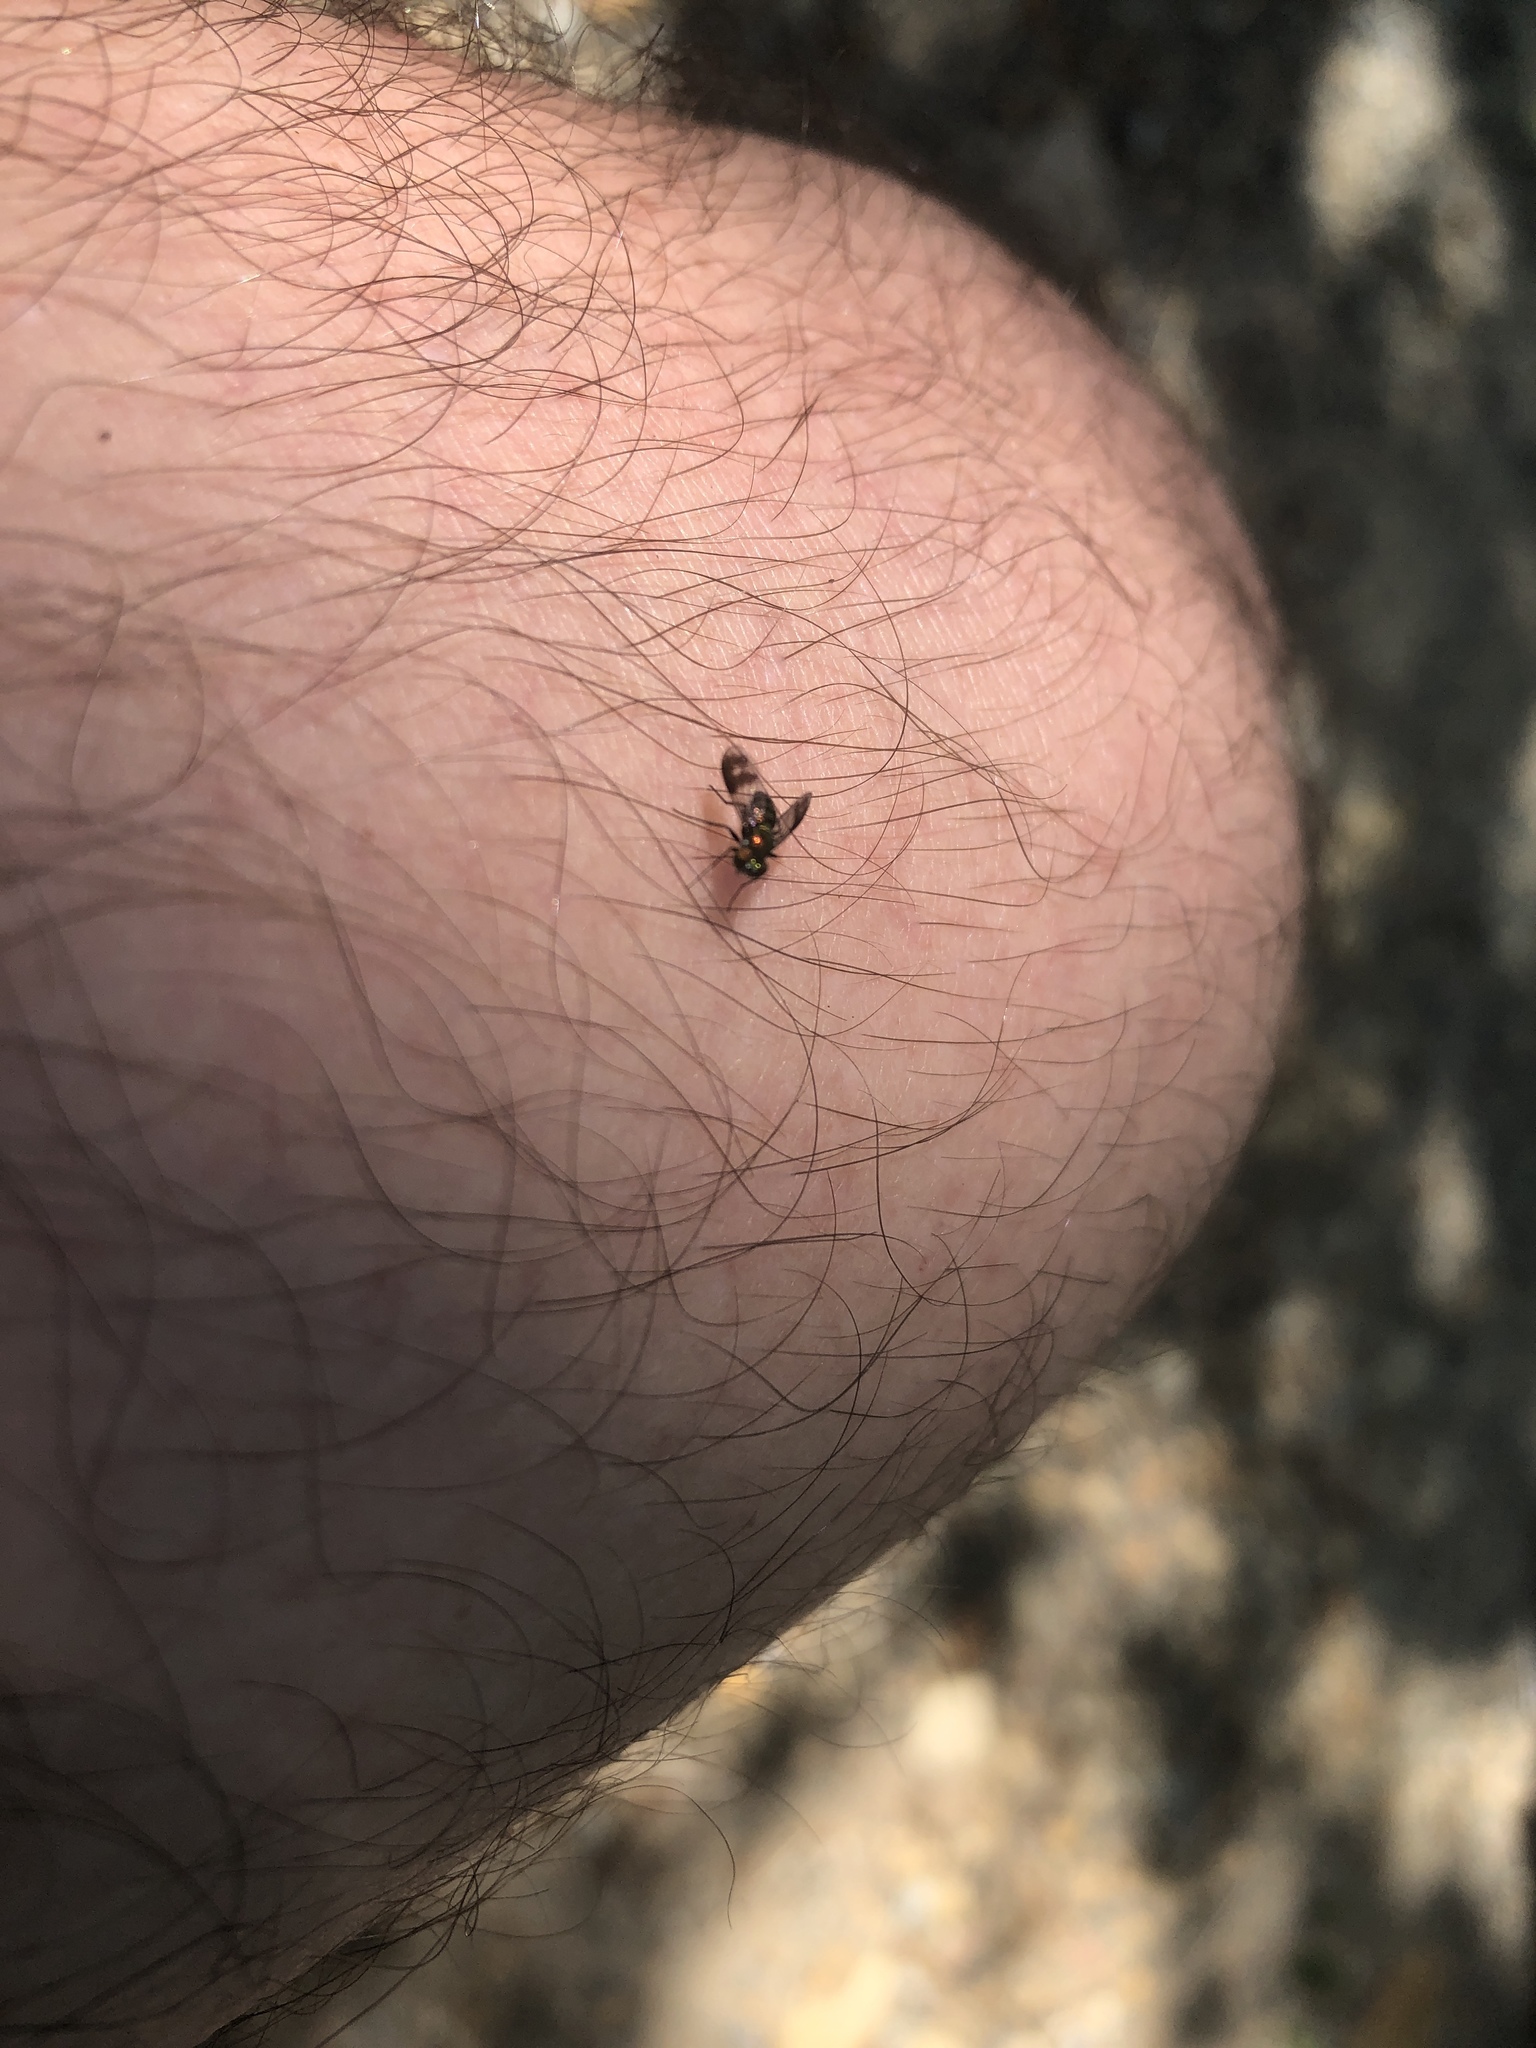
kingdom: Animalia
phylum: Arthropoda
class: Insecta
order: Diptera
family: Dolichopodidae
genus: Condylostylus
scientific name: Condylostylus patibulatus
